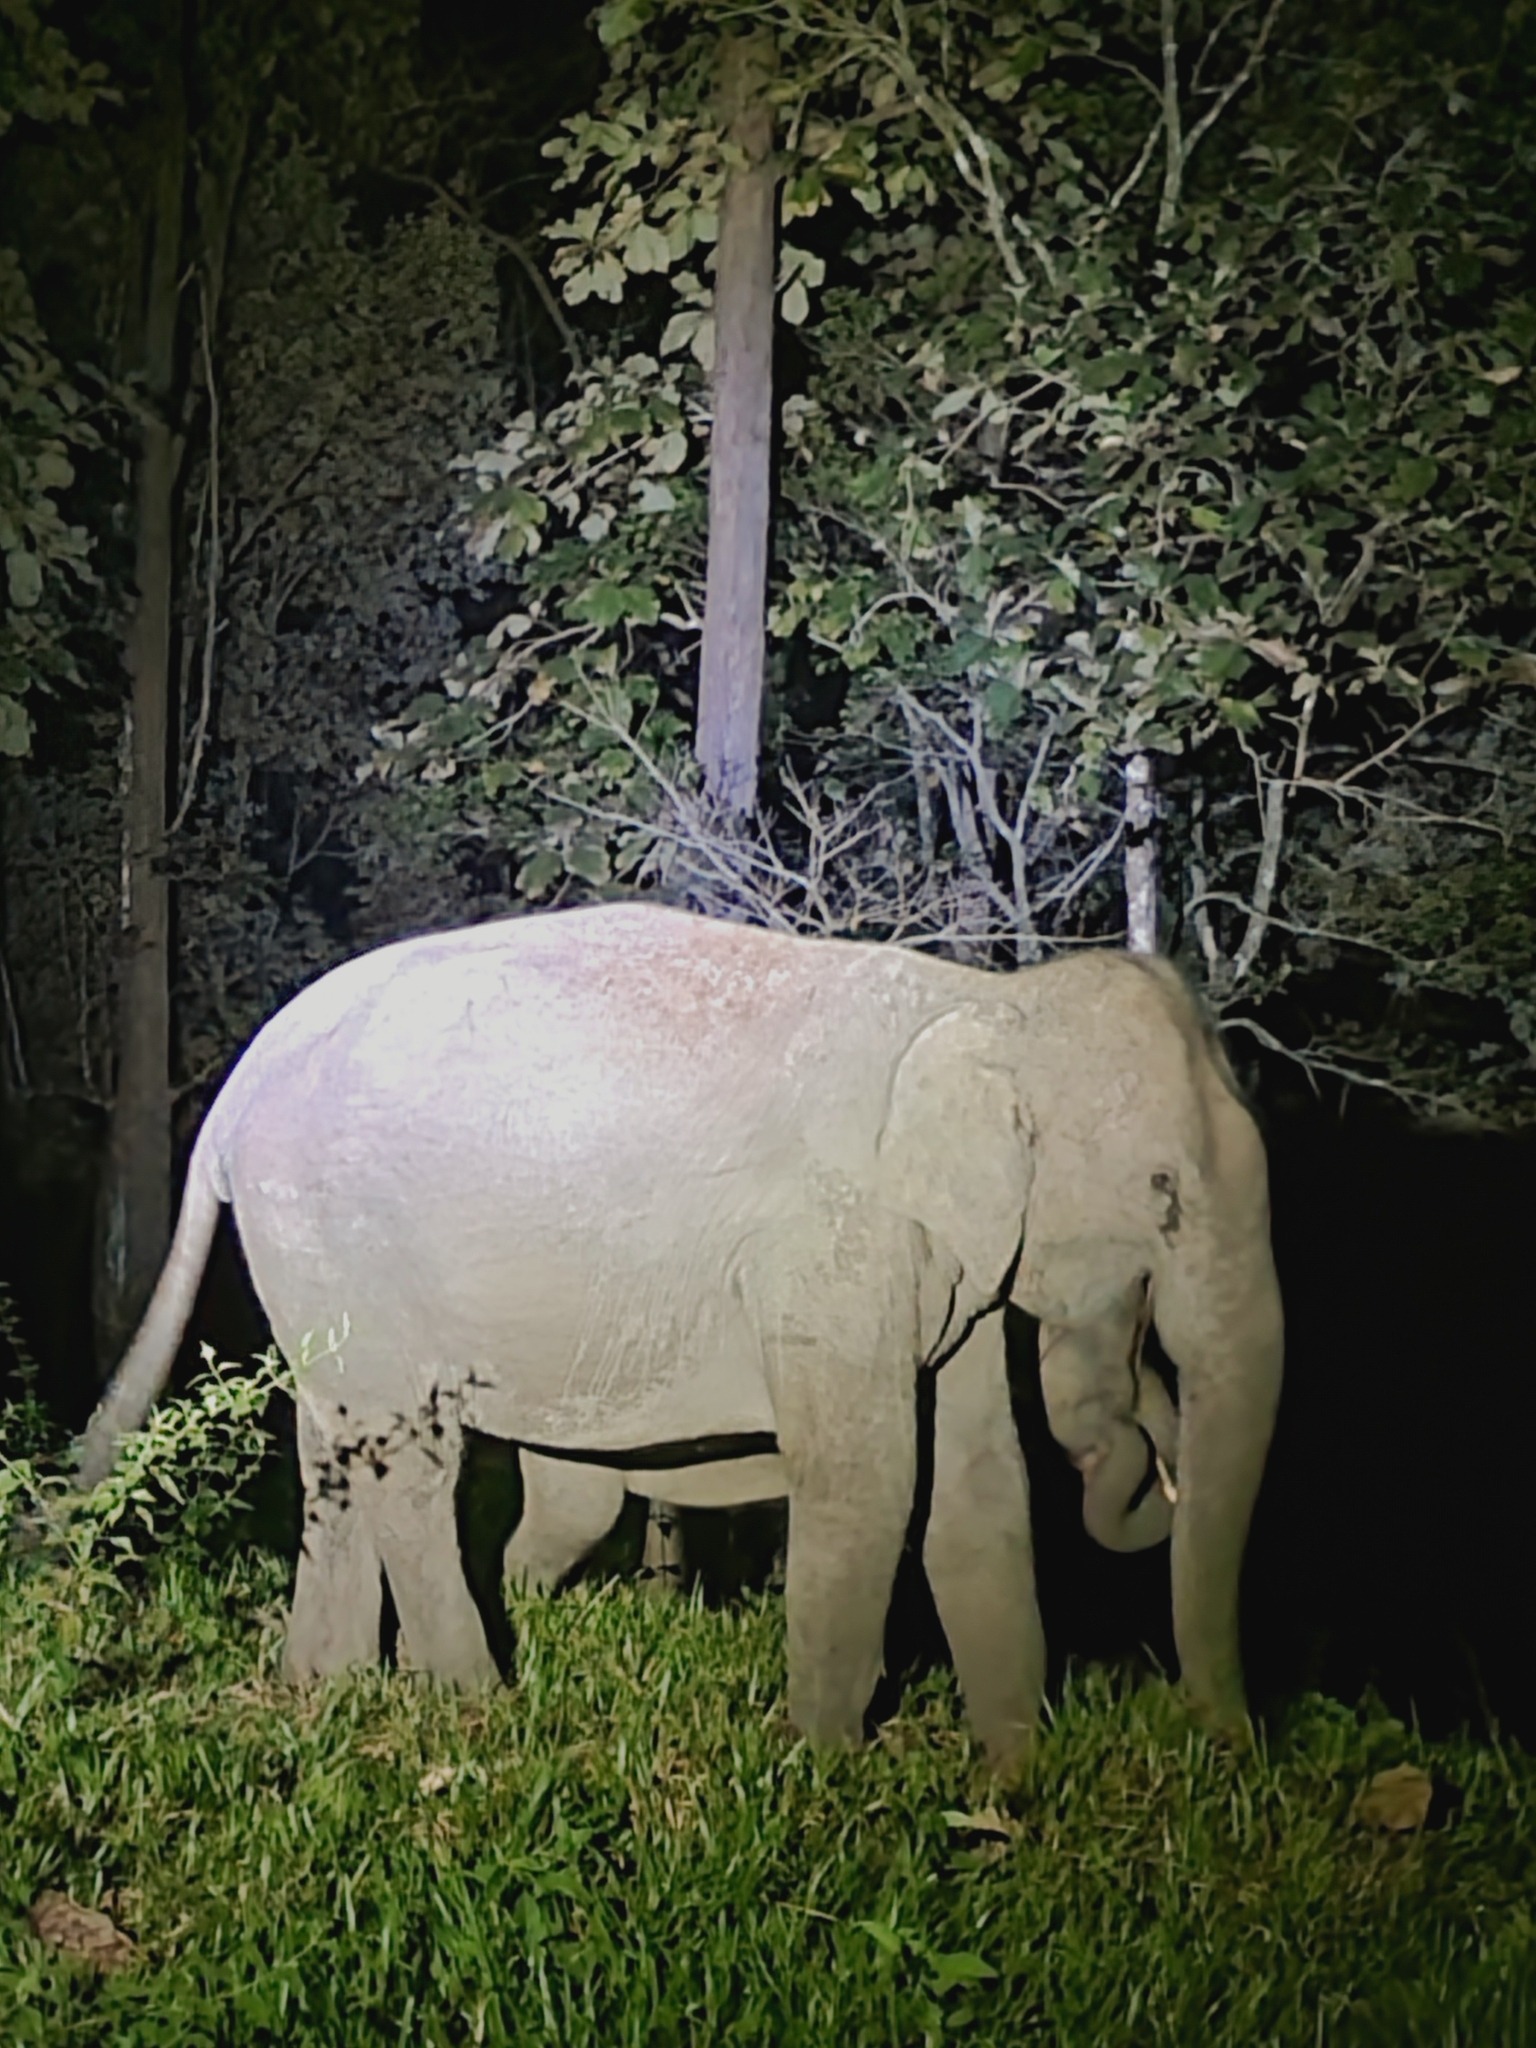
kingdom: Animalia
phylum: Chordata
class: Mammalia
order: Proboscidea
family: Elephantidae
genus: Elephas
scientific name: Elephas maximus
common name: Asian elephant
